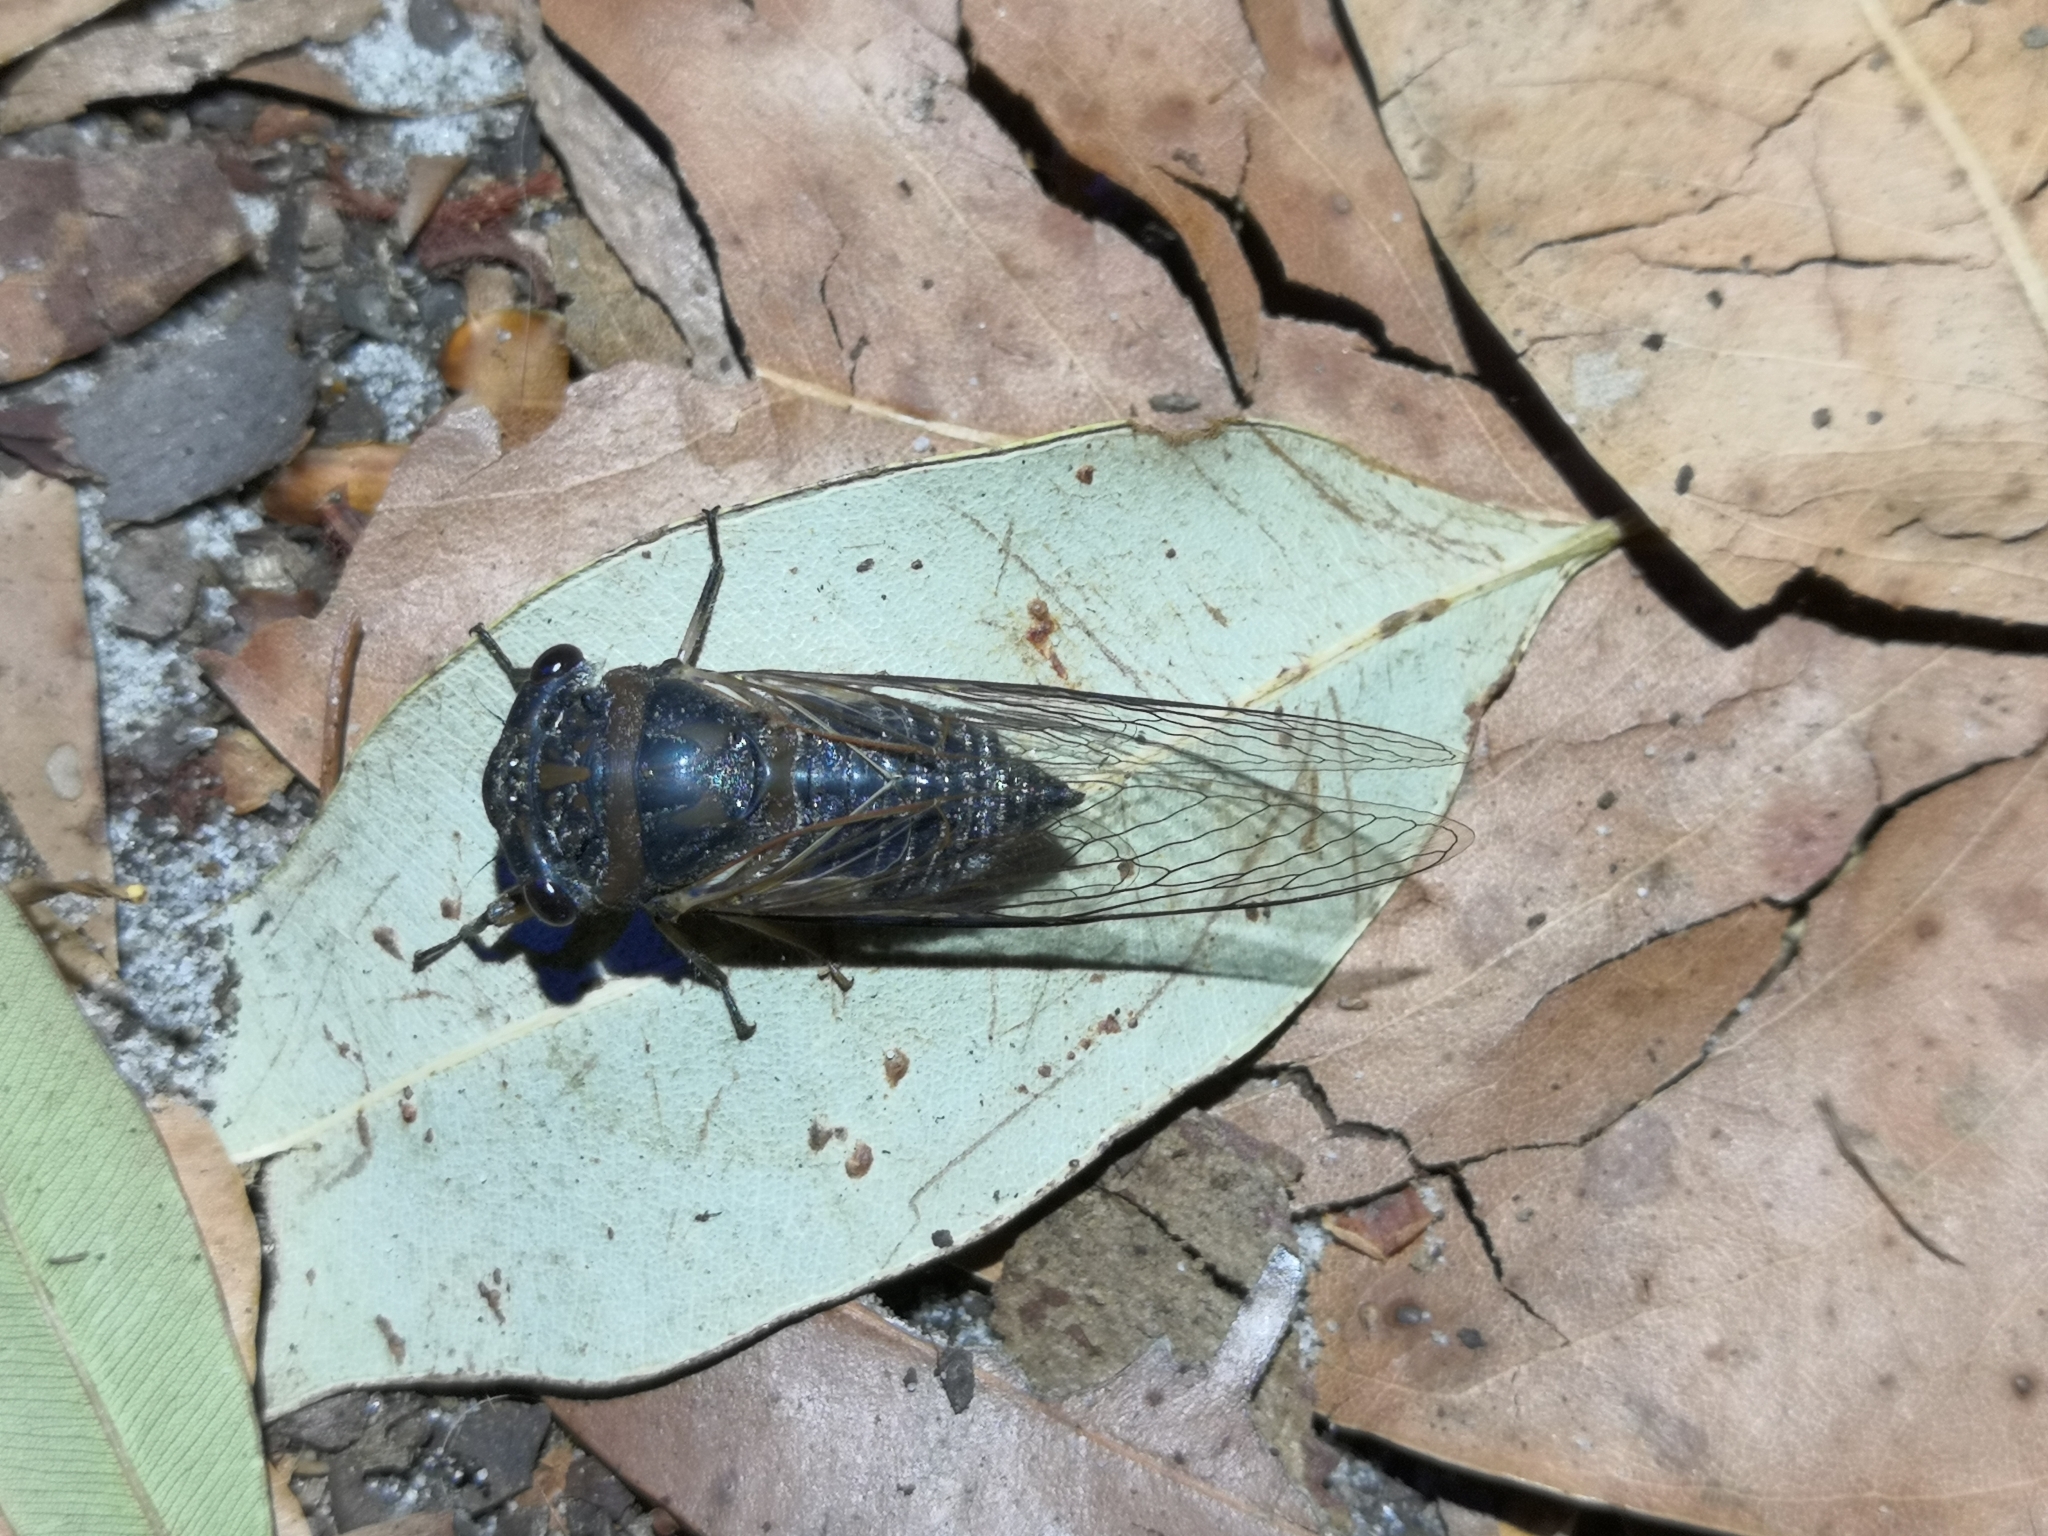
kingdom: Animalia
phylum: Arthropoda
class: Insecta
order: Hemiptera
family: Cicadidae
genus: Psaltoda
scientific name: Psaltoda harrisii
